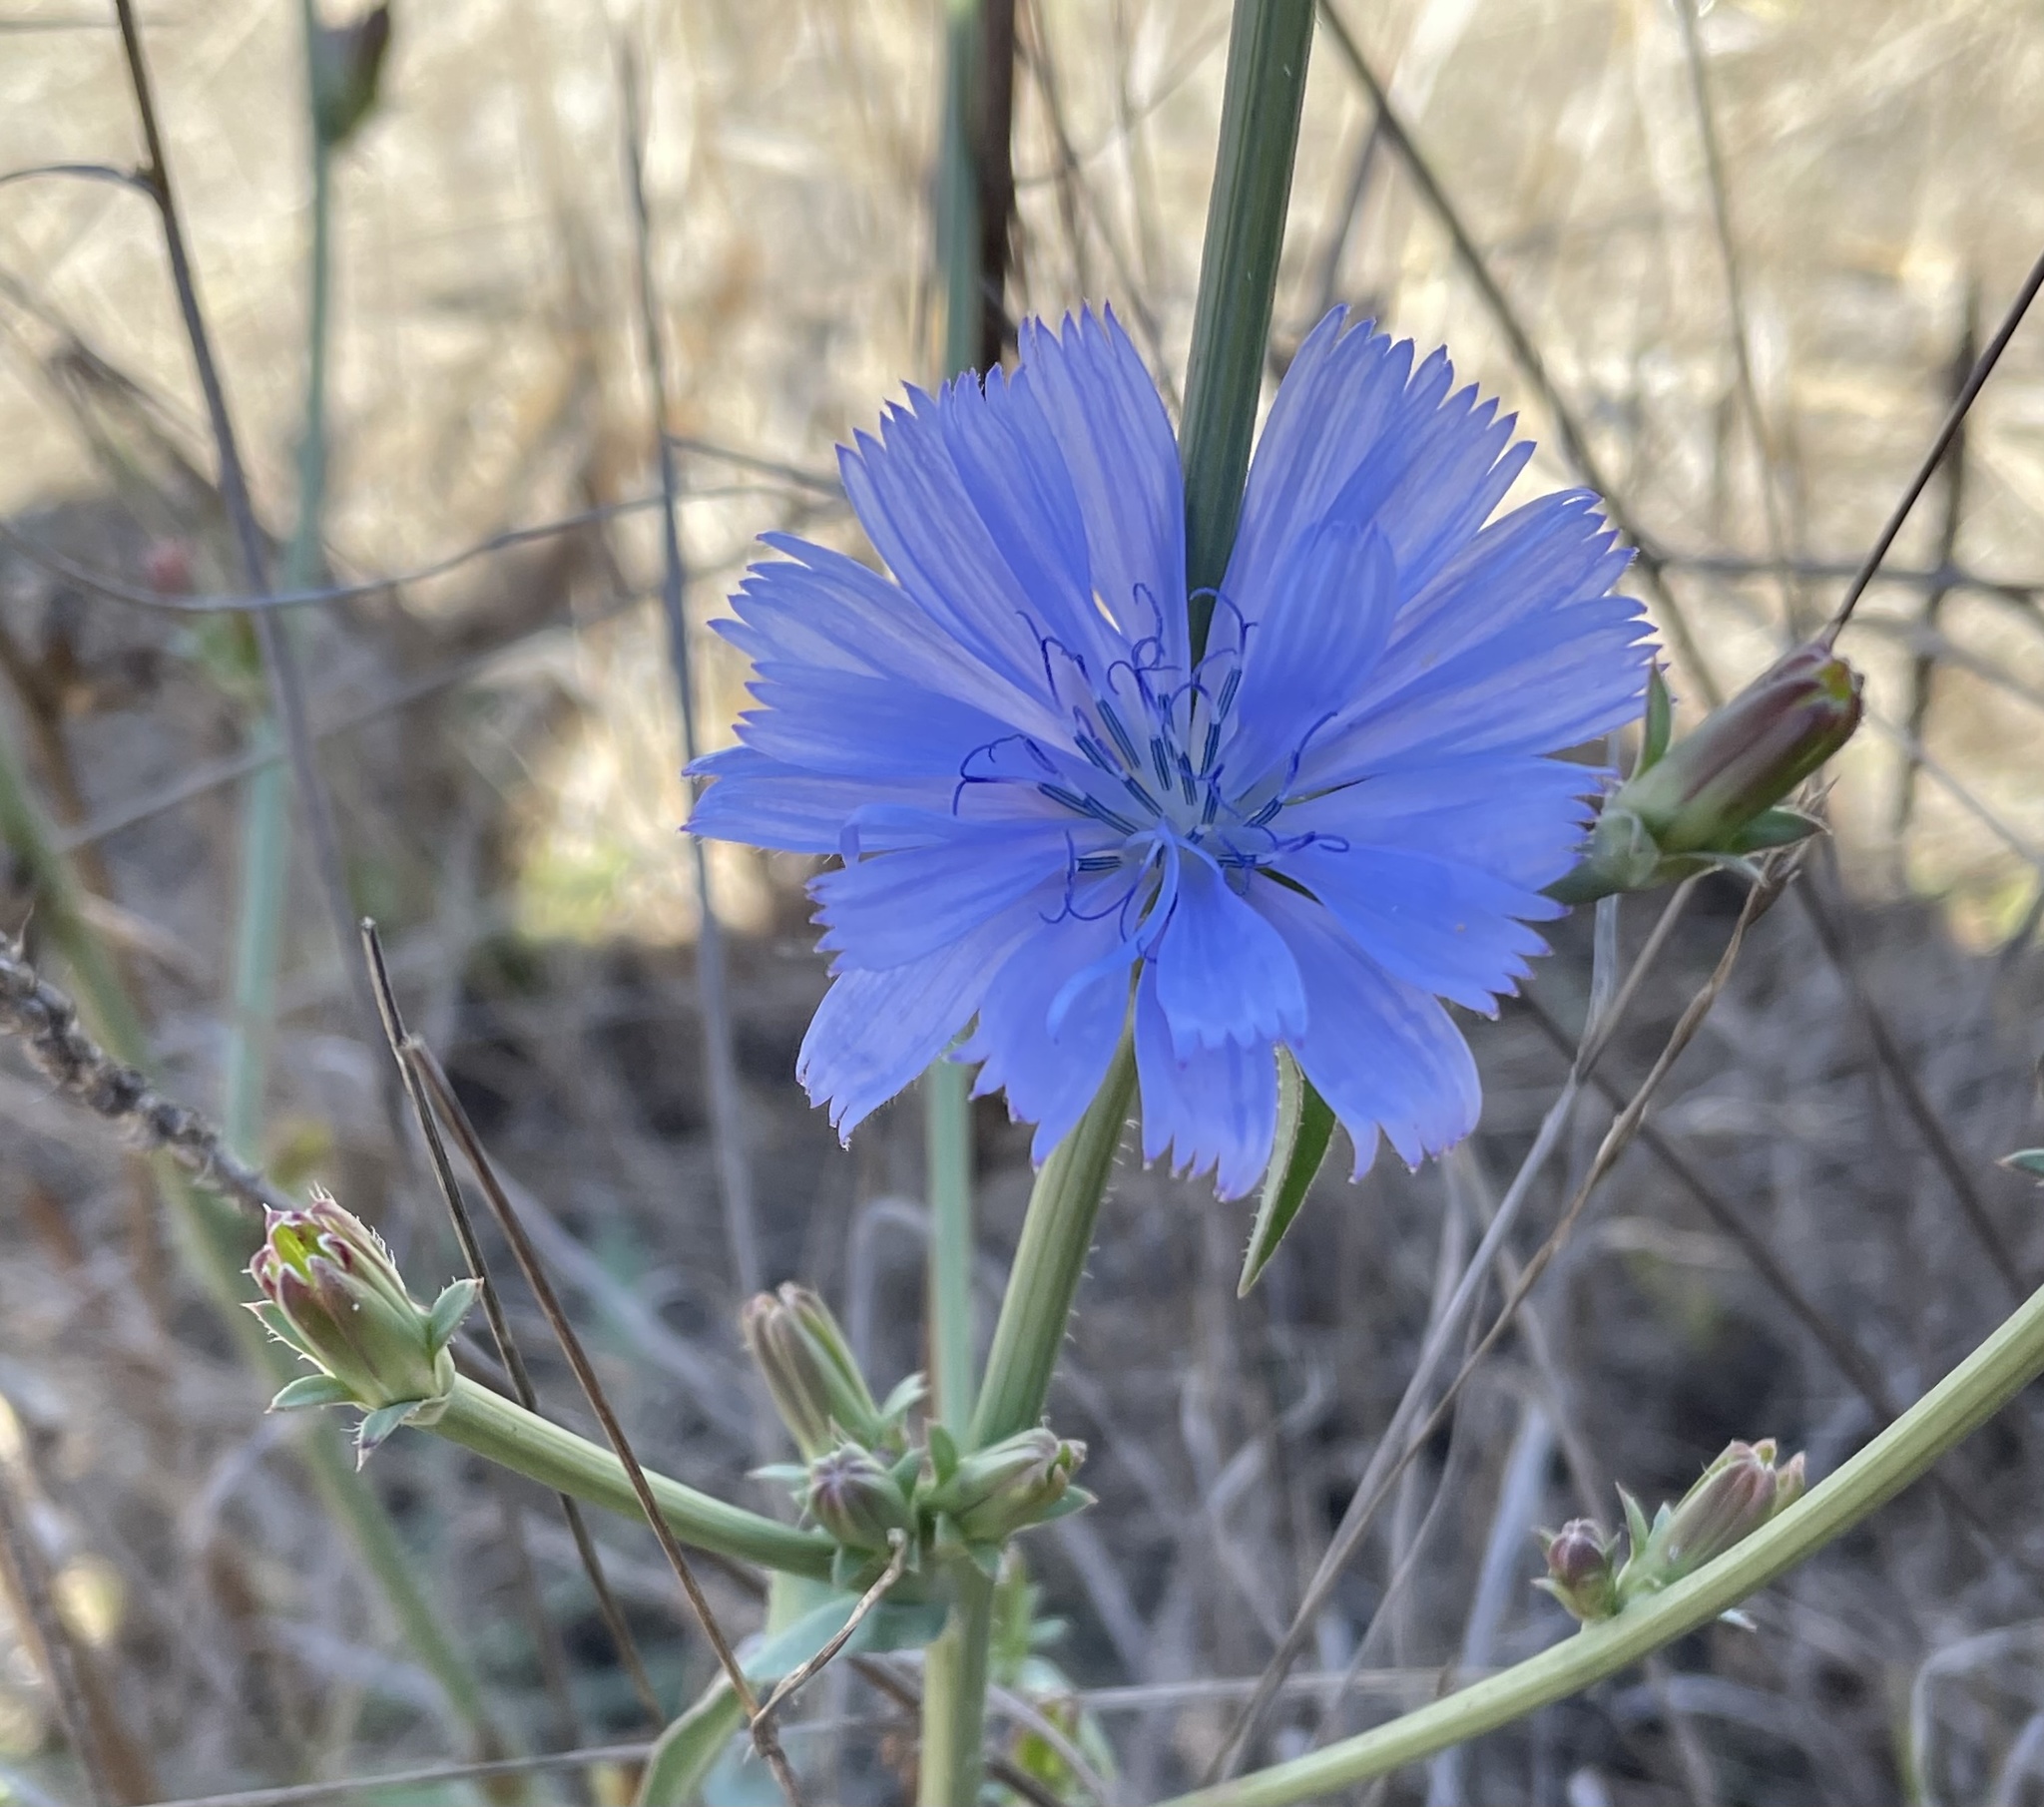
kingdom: Plantae
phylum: Tracheophyta
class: Magnoliopsida
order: Asterales
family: Asteraceae
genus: Cichorium
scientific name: Cichorium intybus
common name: Chicory
